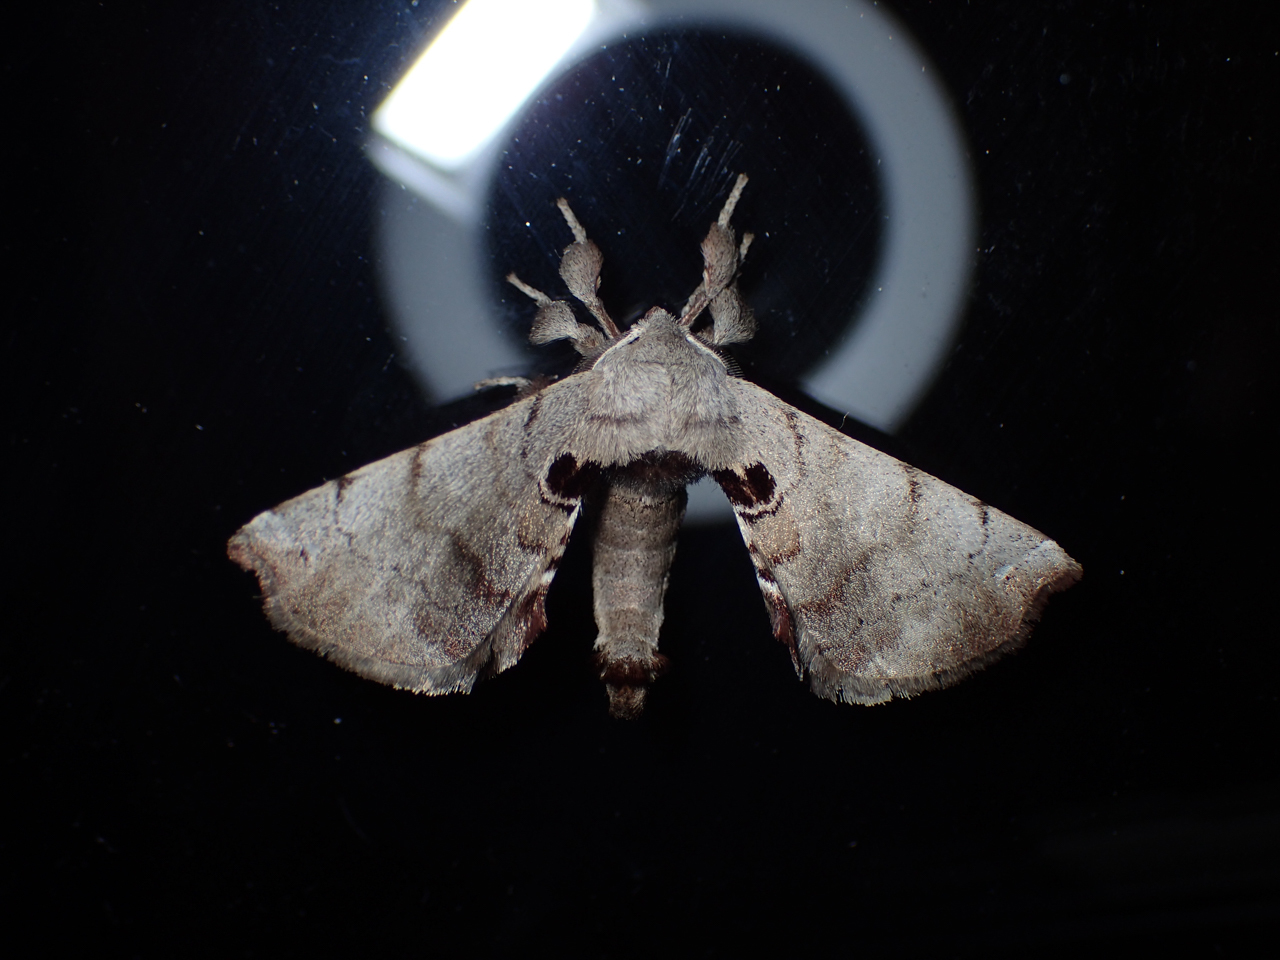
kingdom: Animalia
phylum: Arthropoda
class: Insecta
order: Lepidoptera
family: Apatelodidae
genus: Hygrochroa
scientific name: Hygrochroa Apatelodes torrefacta
